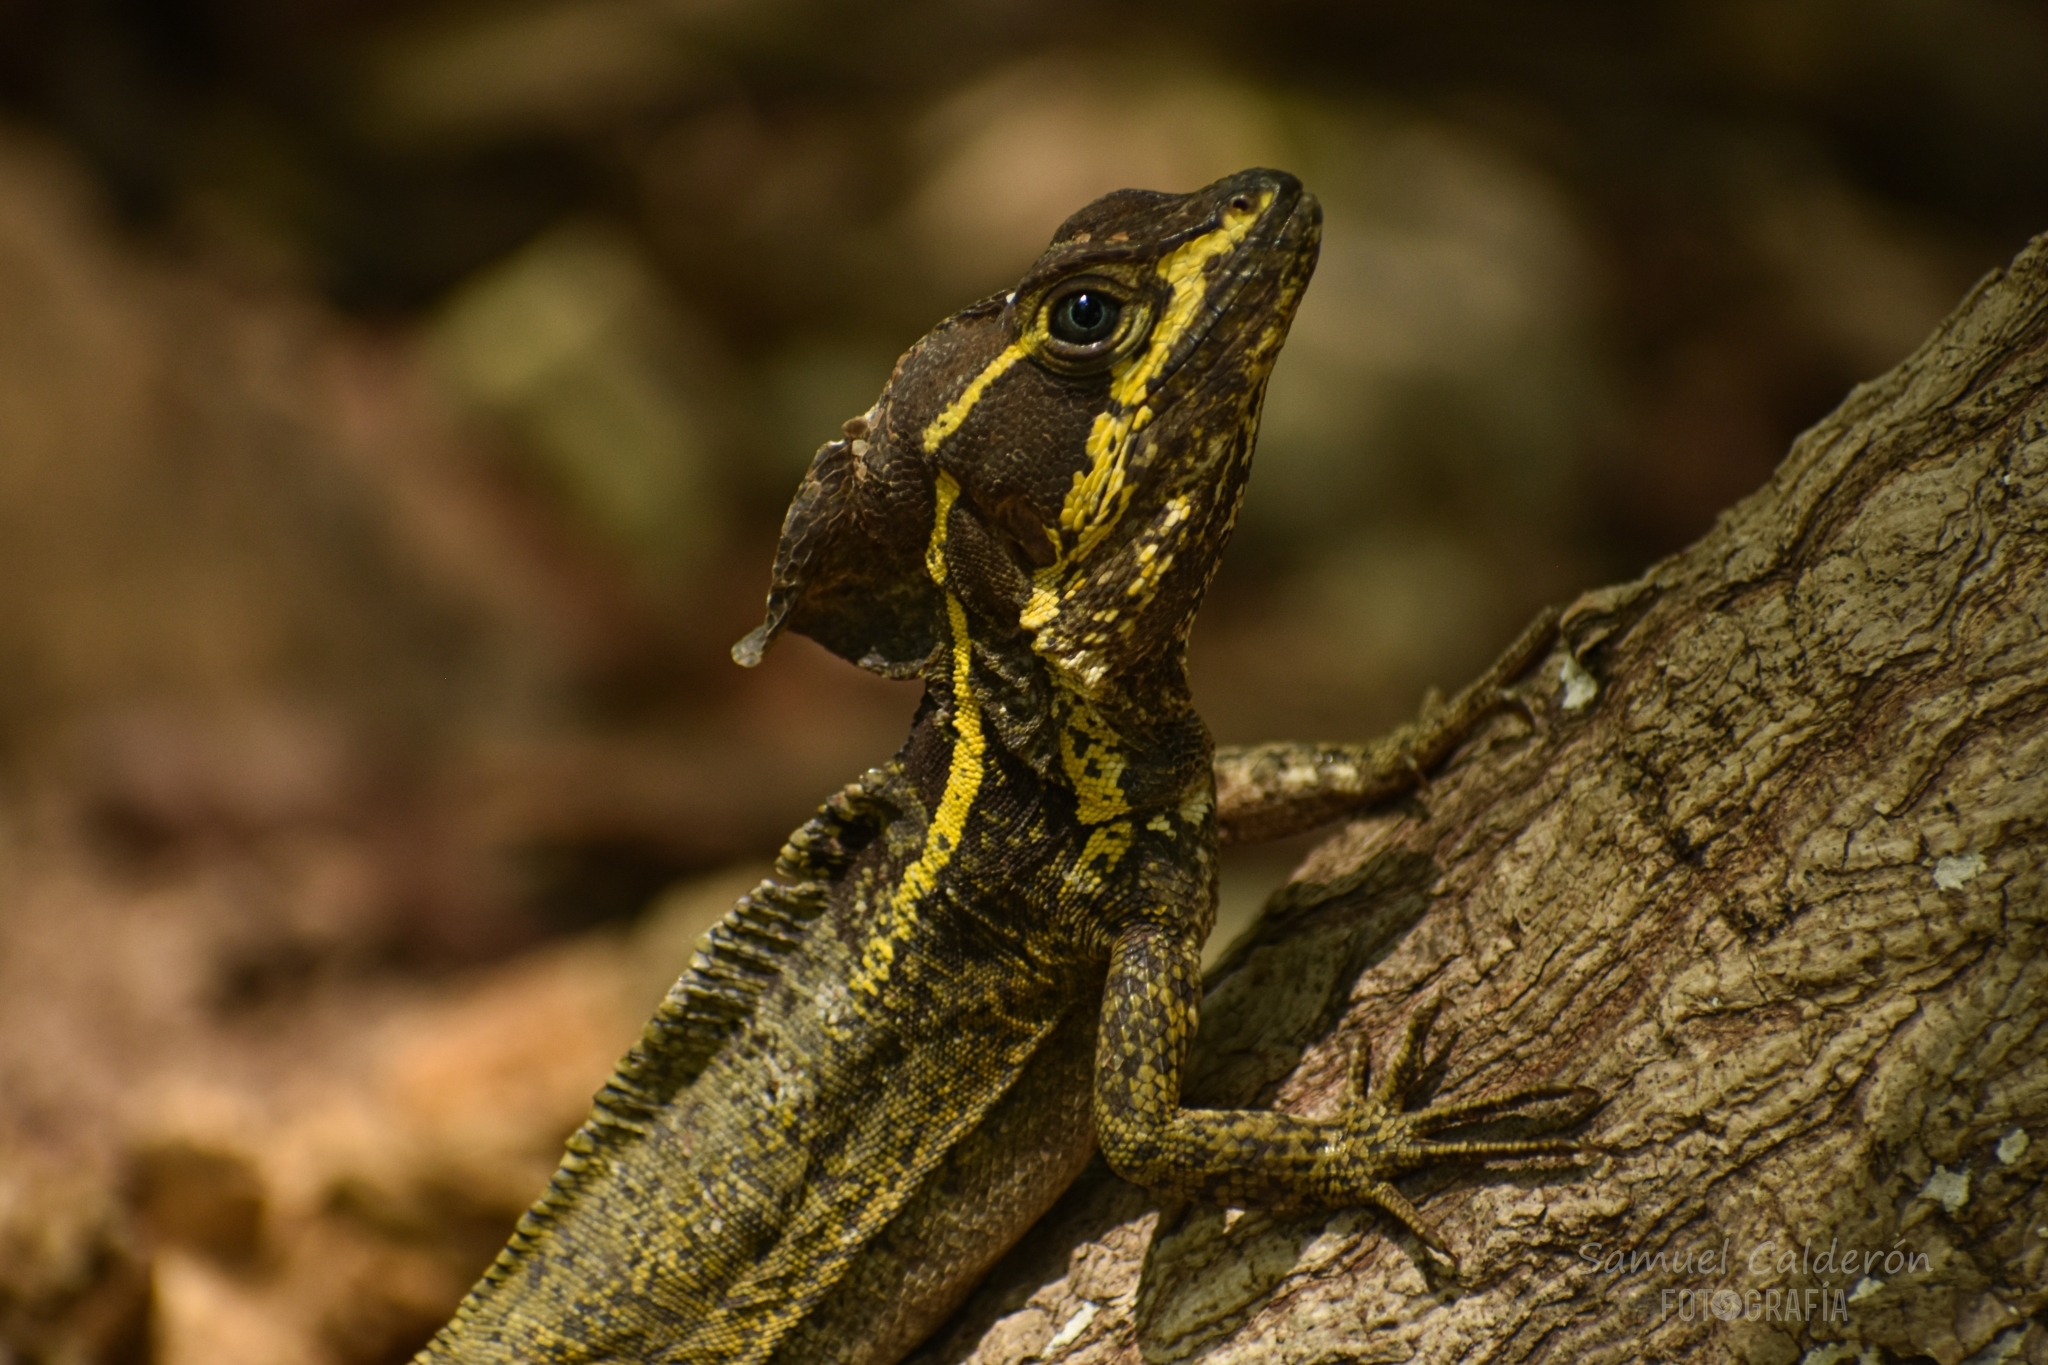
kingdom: Animalia
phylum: Chordata
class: Squamata
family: Corytophanidae
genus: Basiliscus
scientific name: Basiliscus vittatus
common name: Brown basilisk
